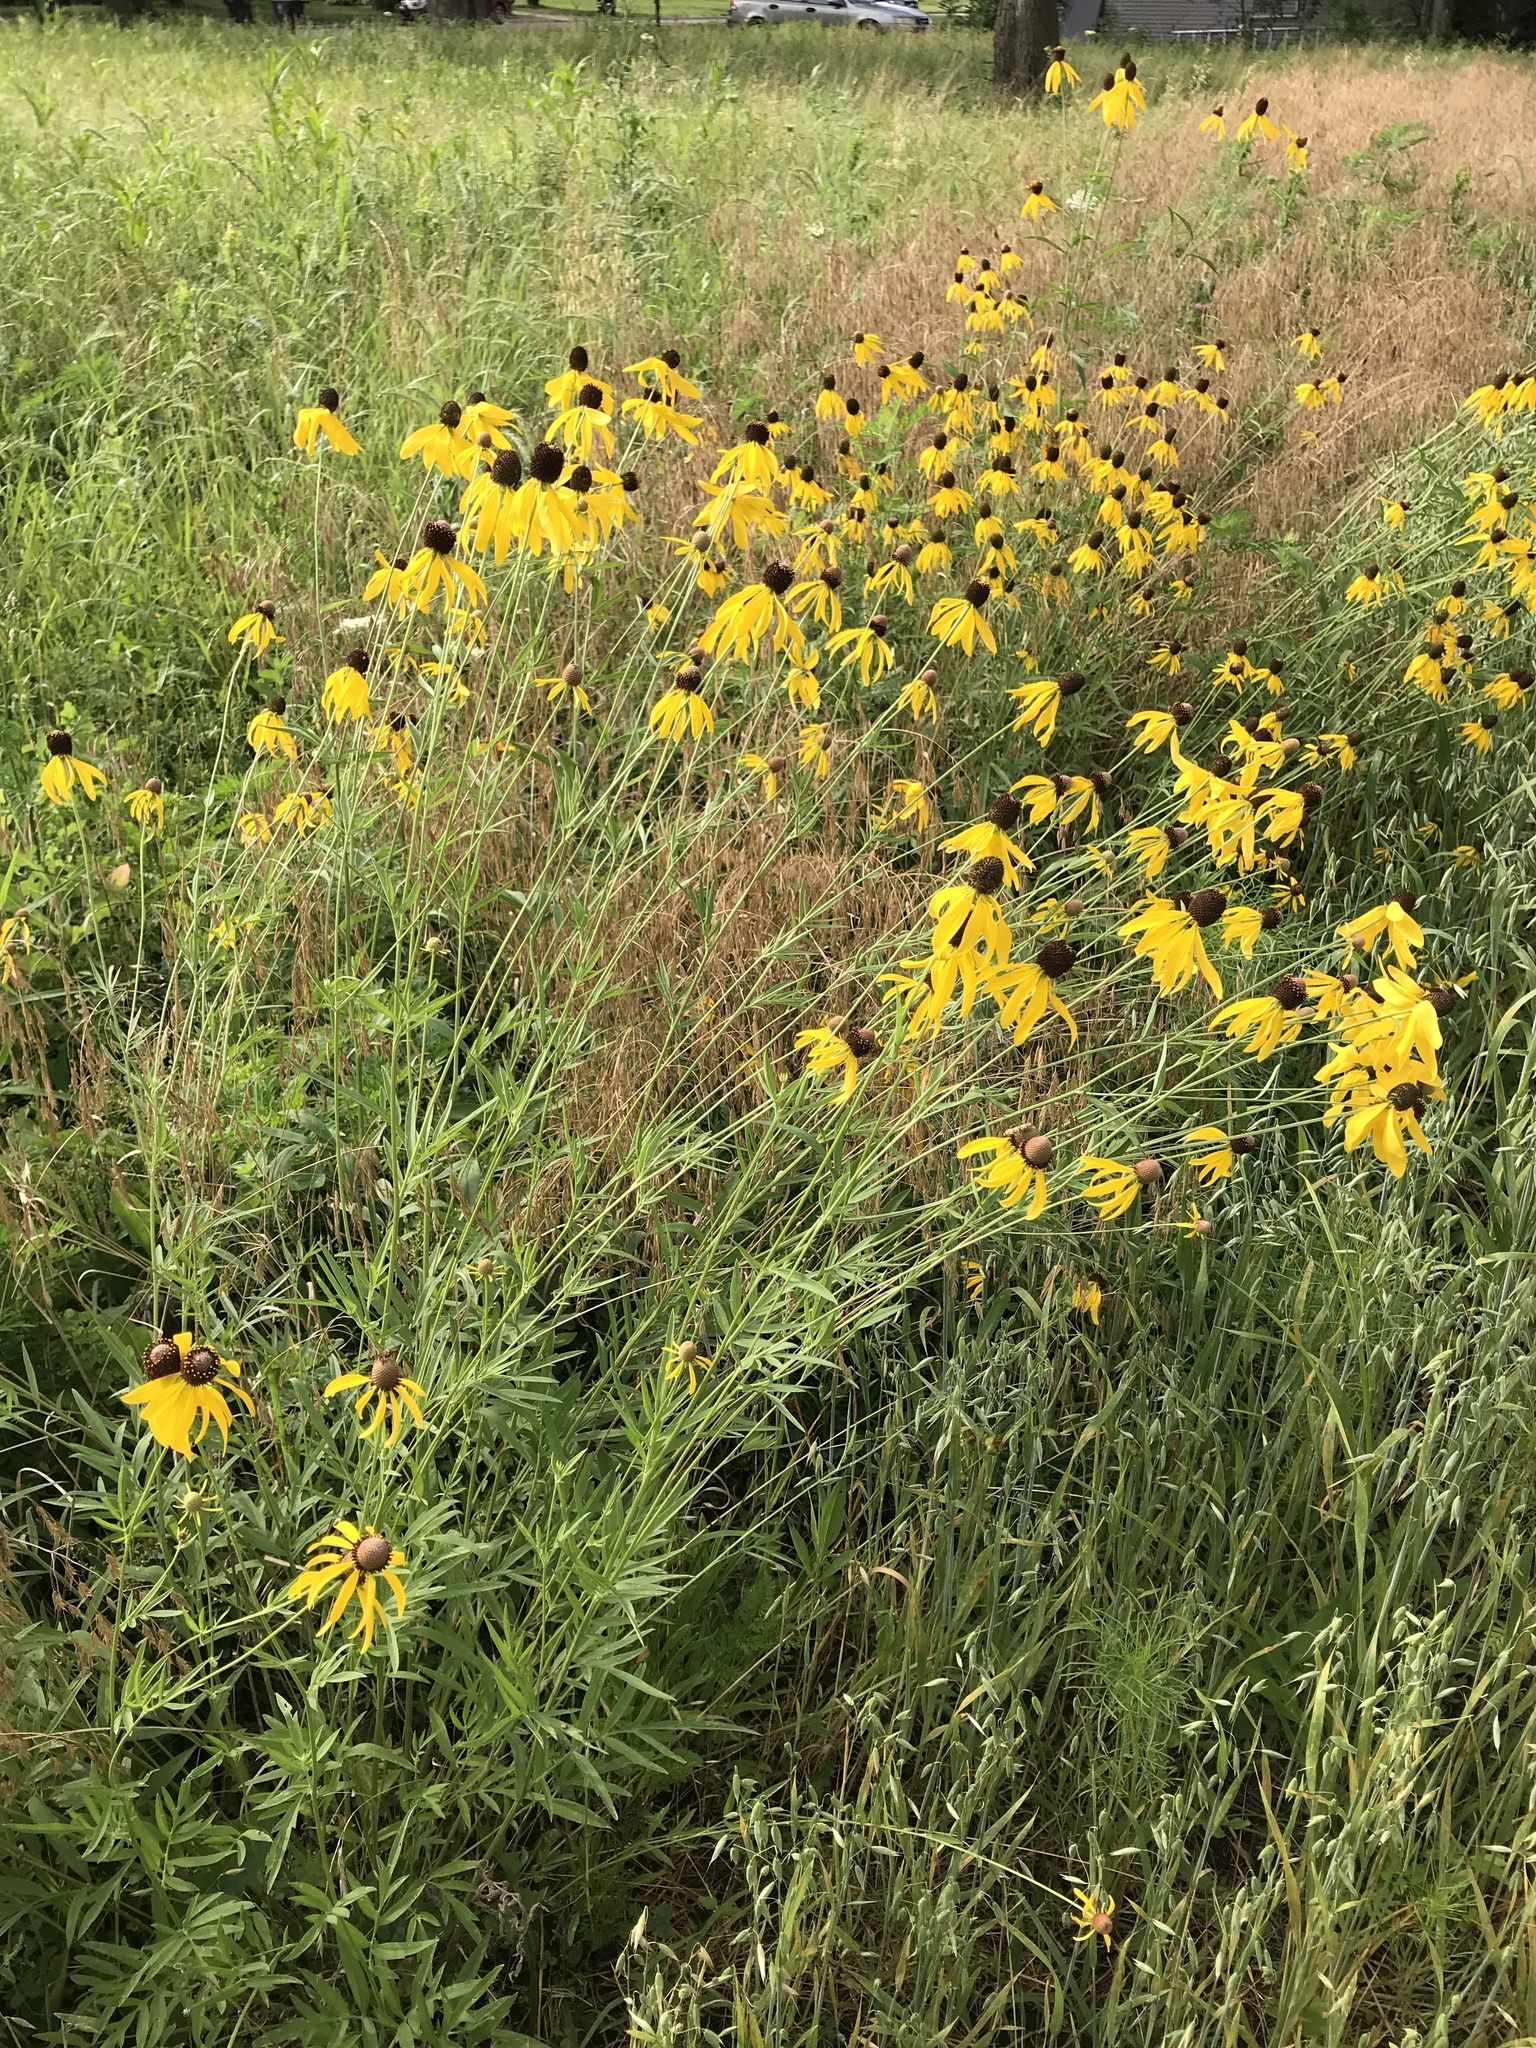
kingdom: Plantae
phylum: Tracheophyta
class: Magnoliopsida
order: Asterales
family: Asteraceae
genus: Ratibida
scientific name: Ratibida pinnata
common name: Drooping prairie-coneflower
